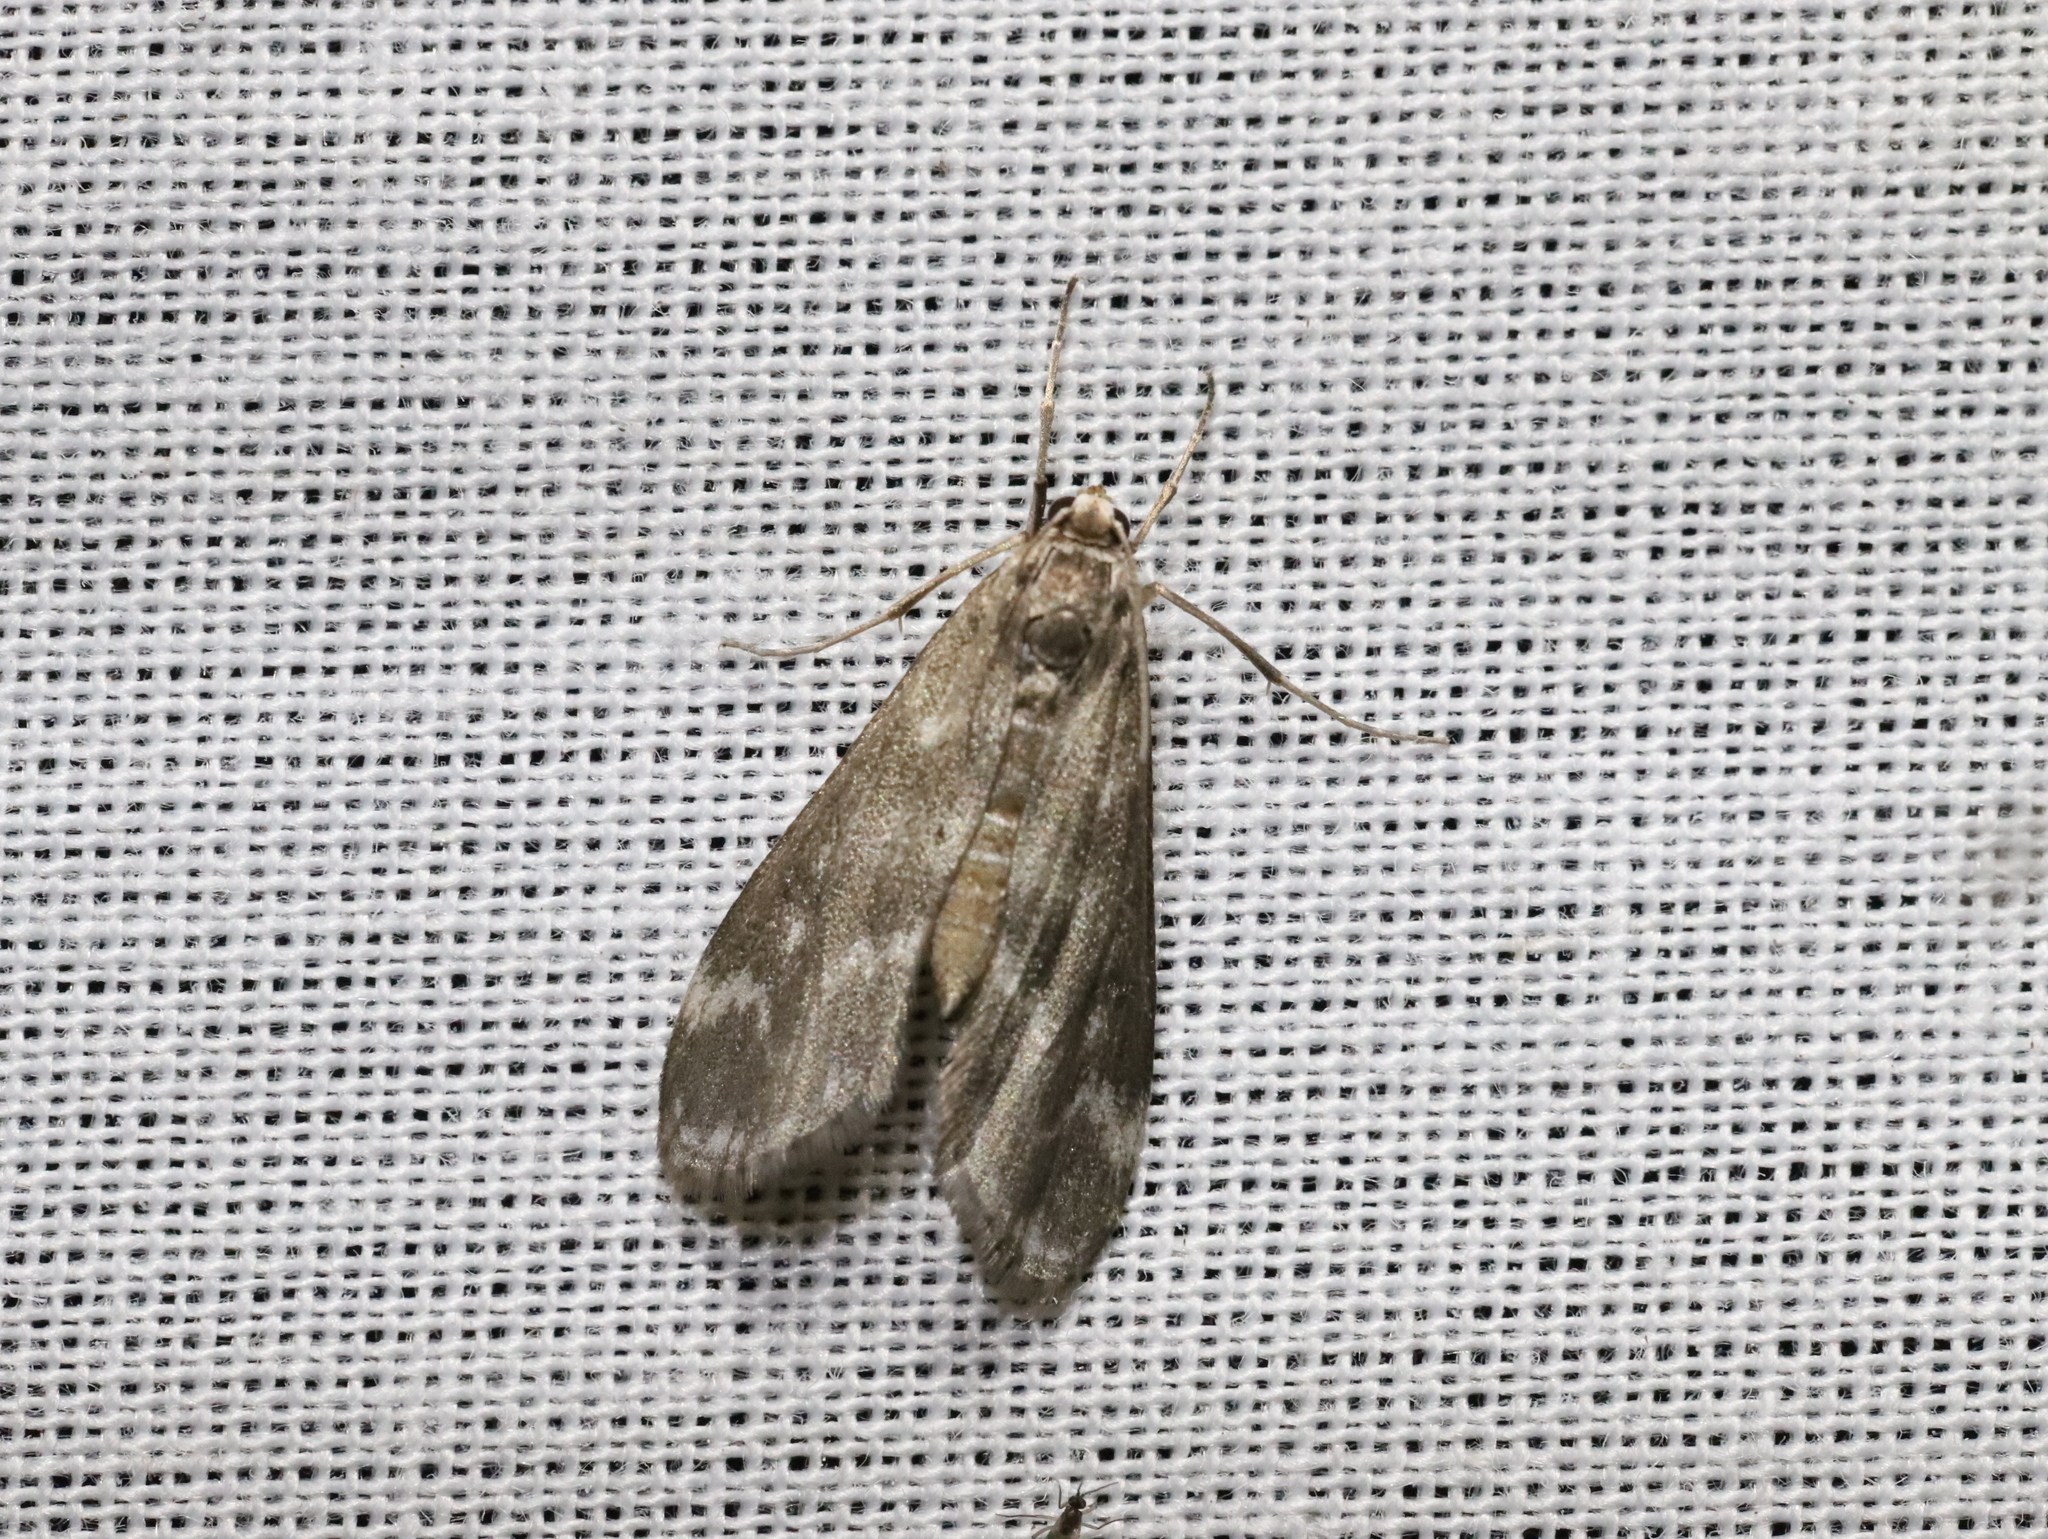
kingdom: Animalia
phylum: Arthropoda
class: Insecta
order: Lepidoptera
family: Crambidae
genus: Hygraula
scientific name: Hygraula nitens
